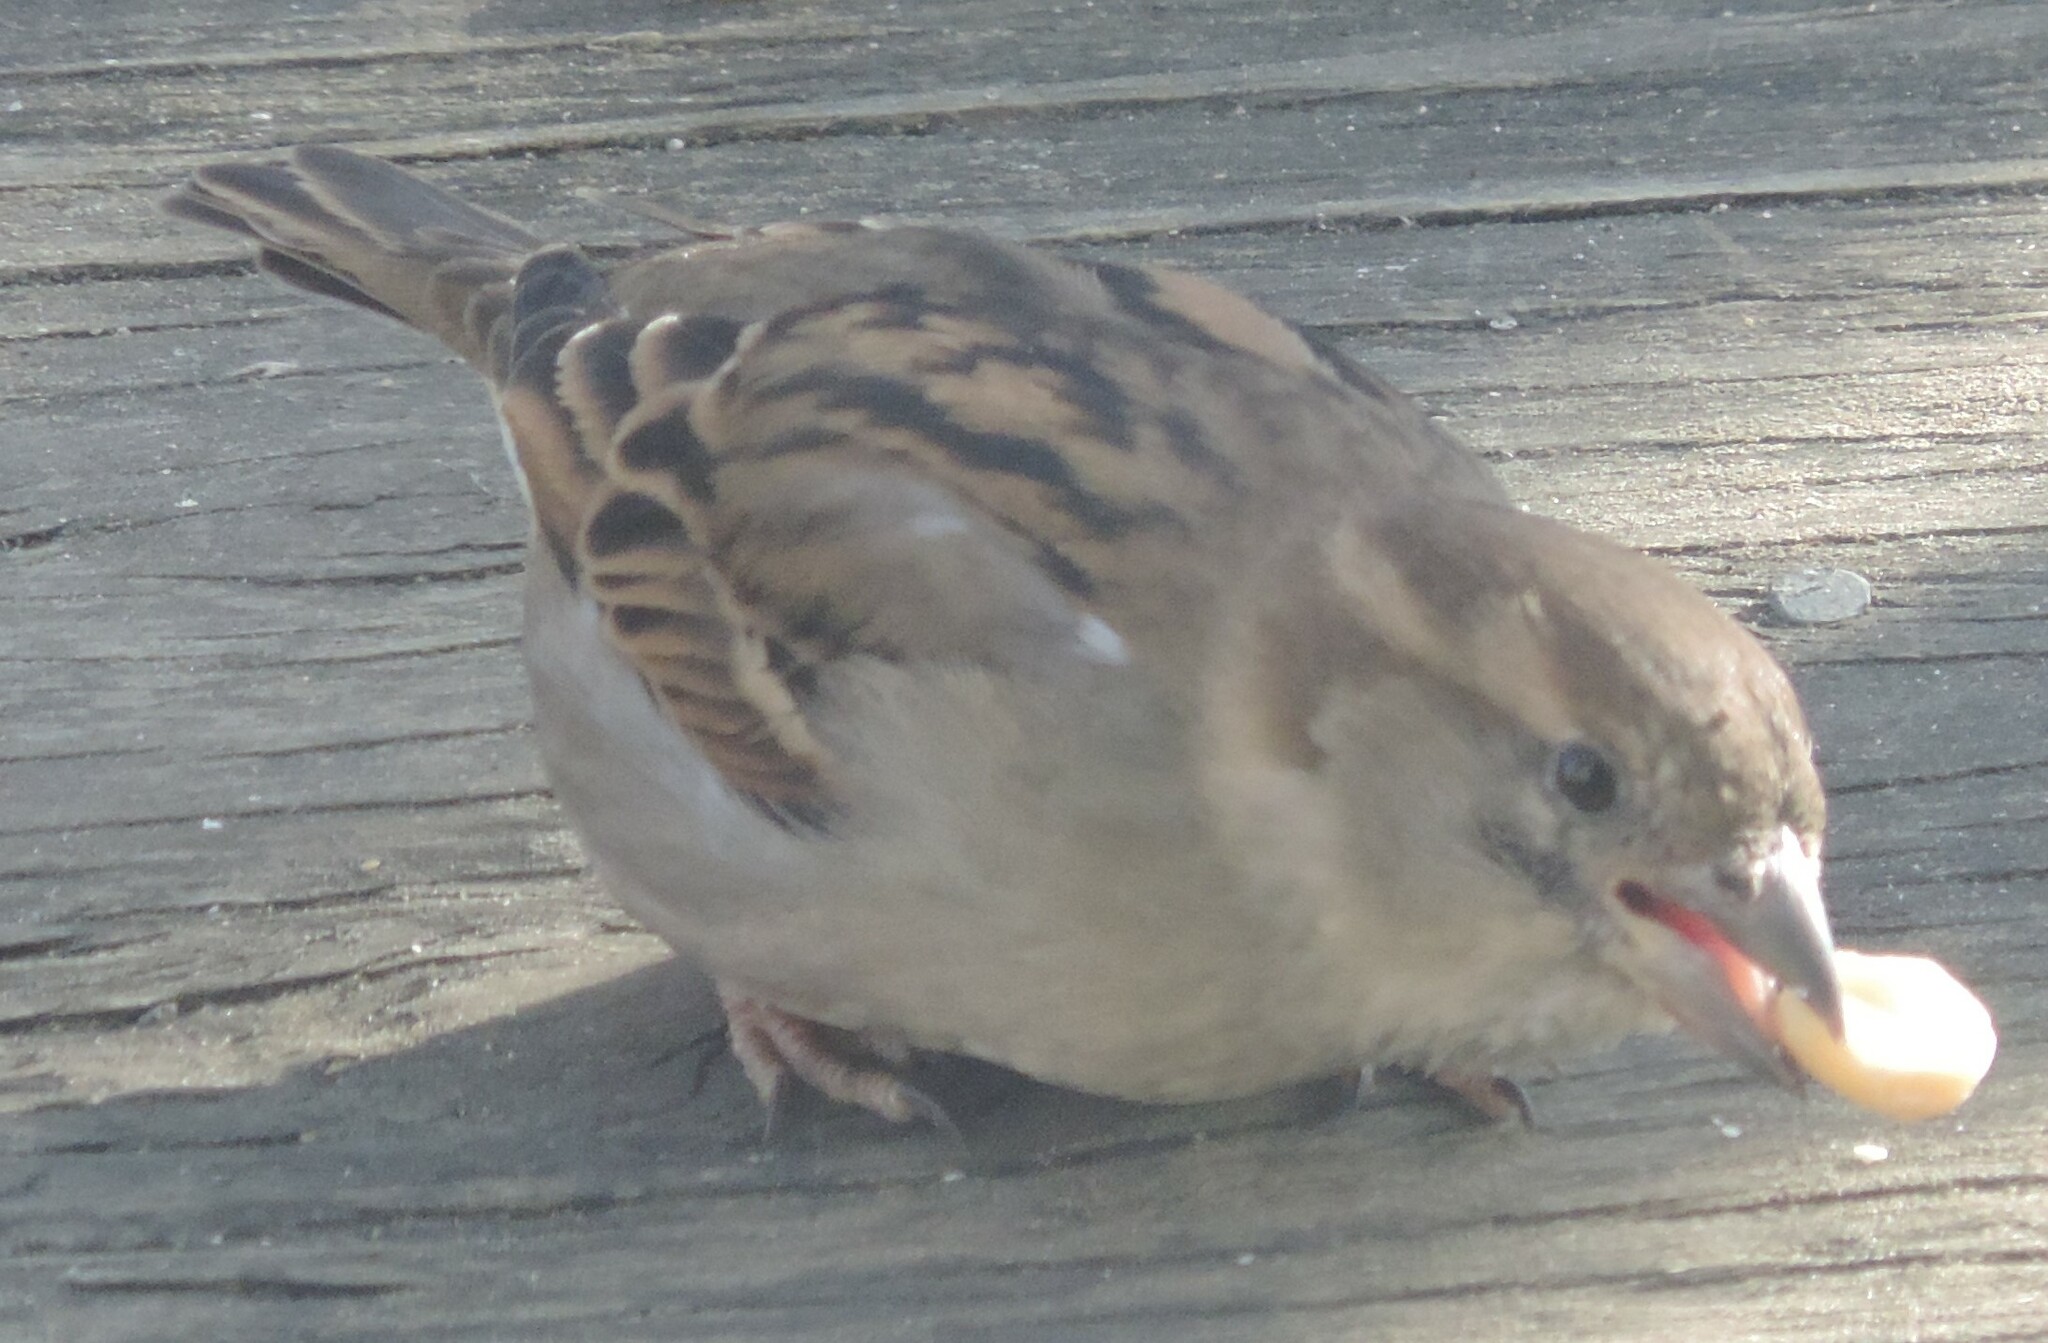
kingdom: Animalia
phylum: Chordata
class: Aves
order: Passeriformes
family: Passeridae
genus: Passer
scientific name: Passer domesticus
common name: House sparrow
